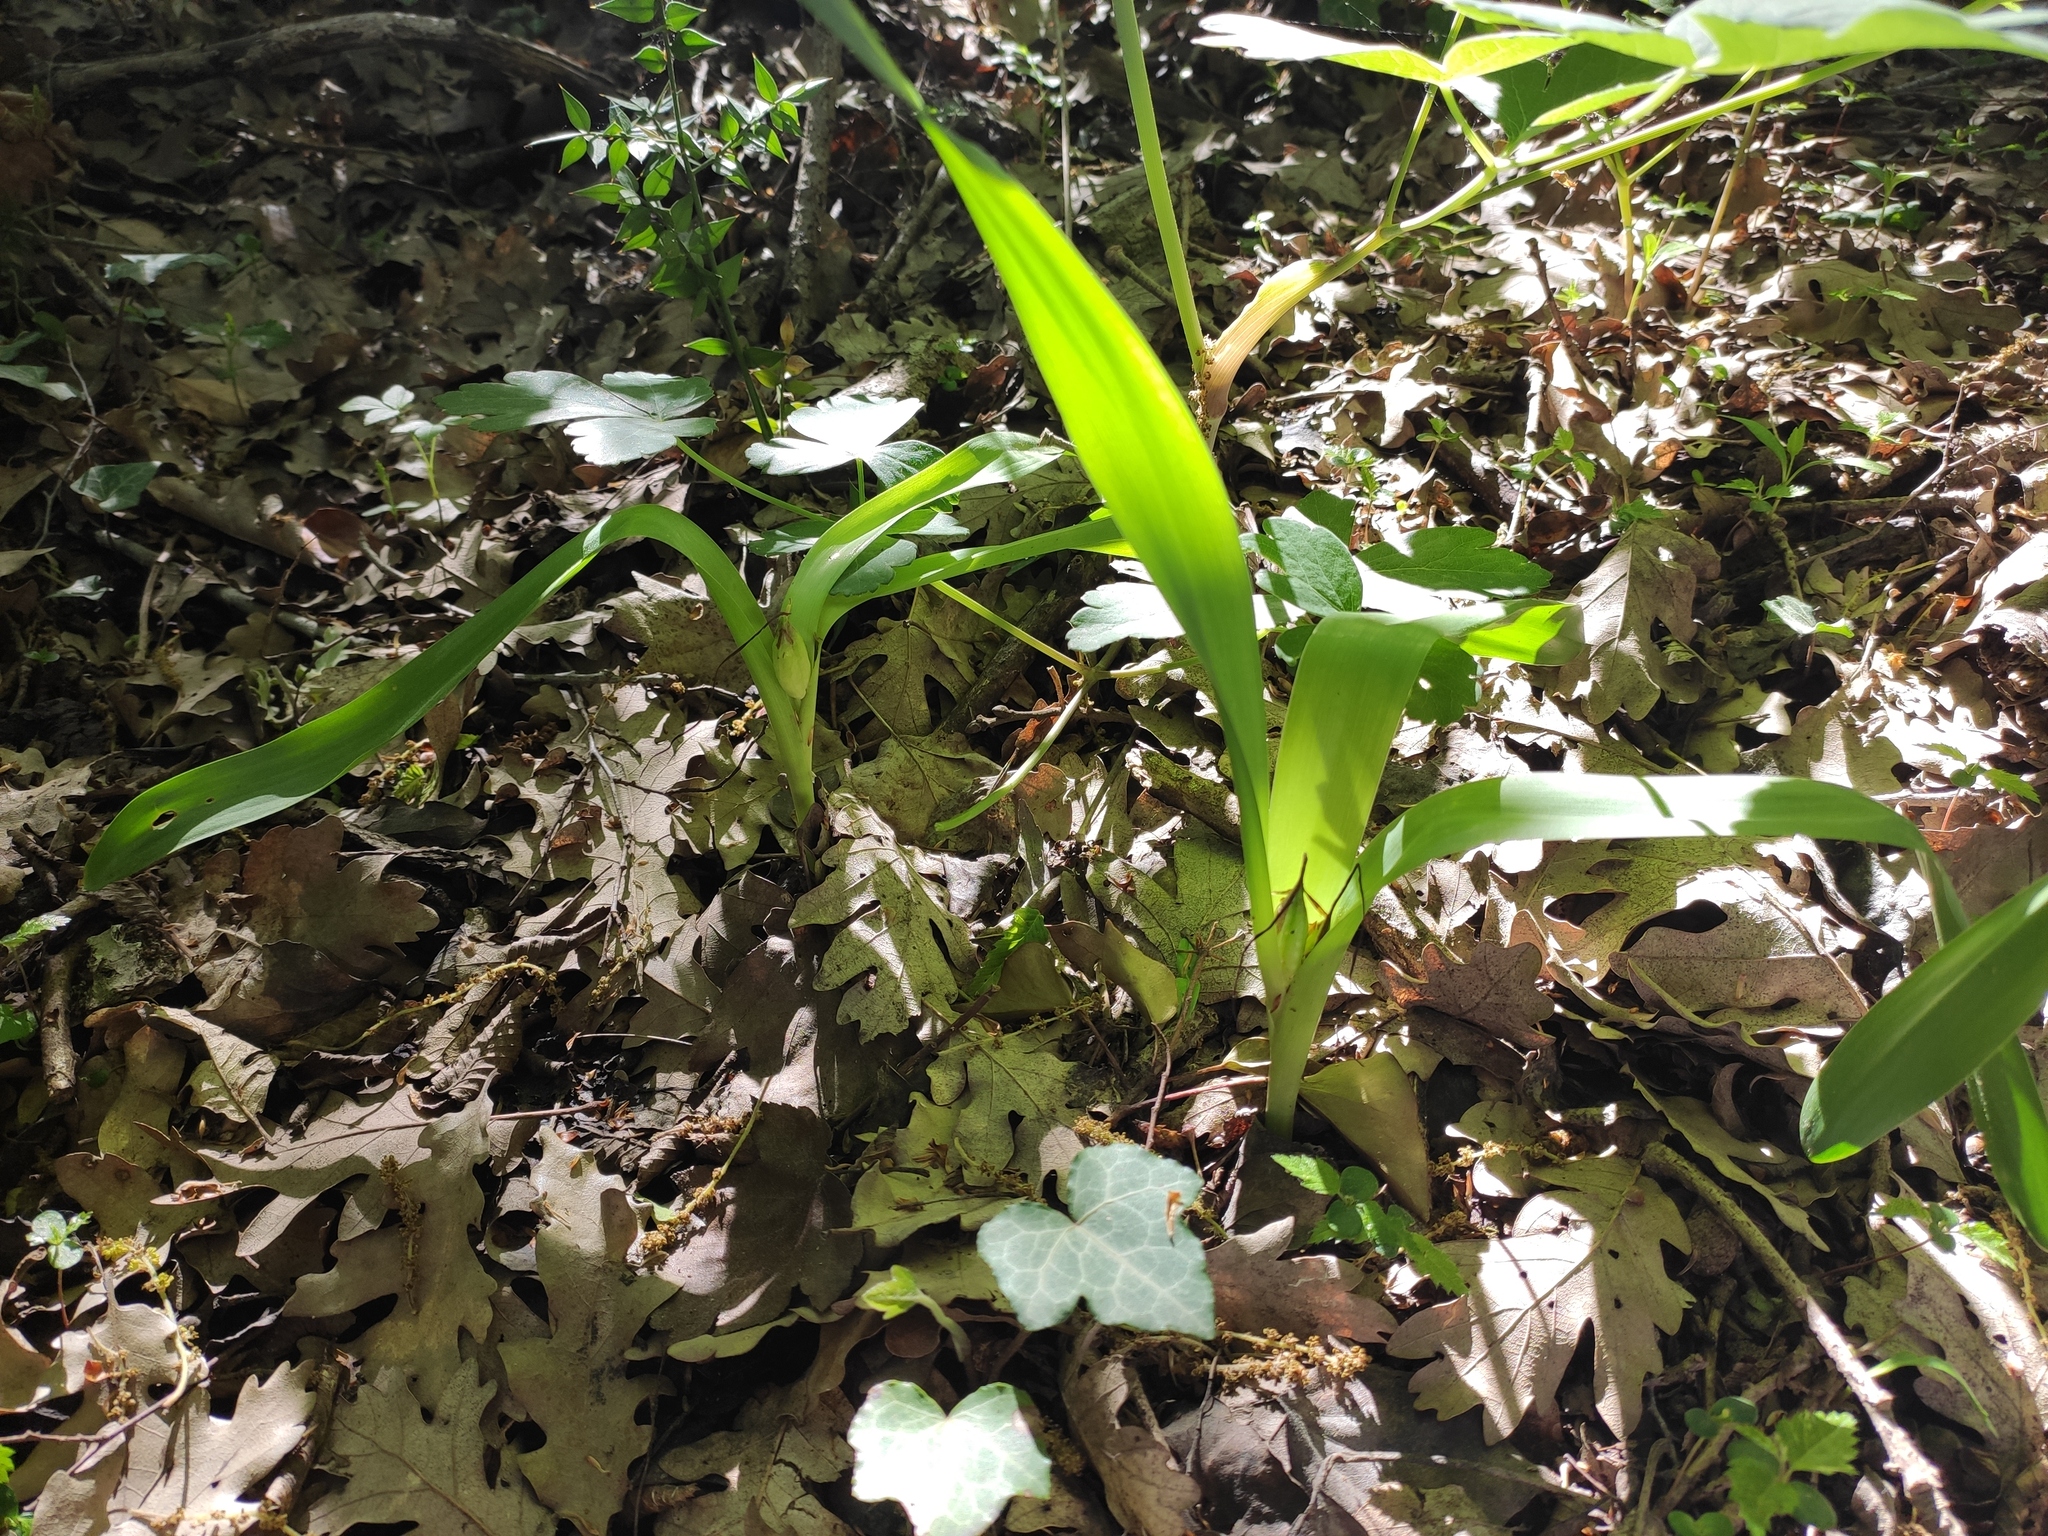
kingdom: Plantae
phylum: Tracheophyta
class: Liliopsida
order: Liliales
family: Colchicaceae
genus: Colchicum
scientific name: Colchicum umbrosum
